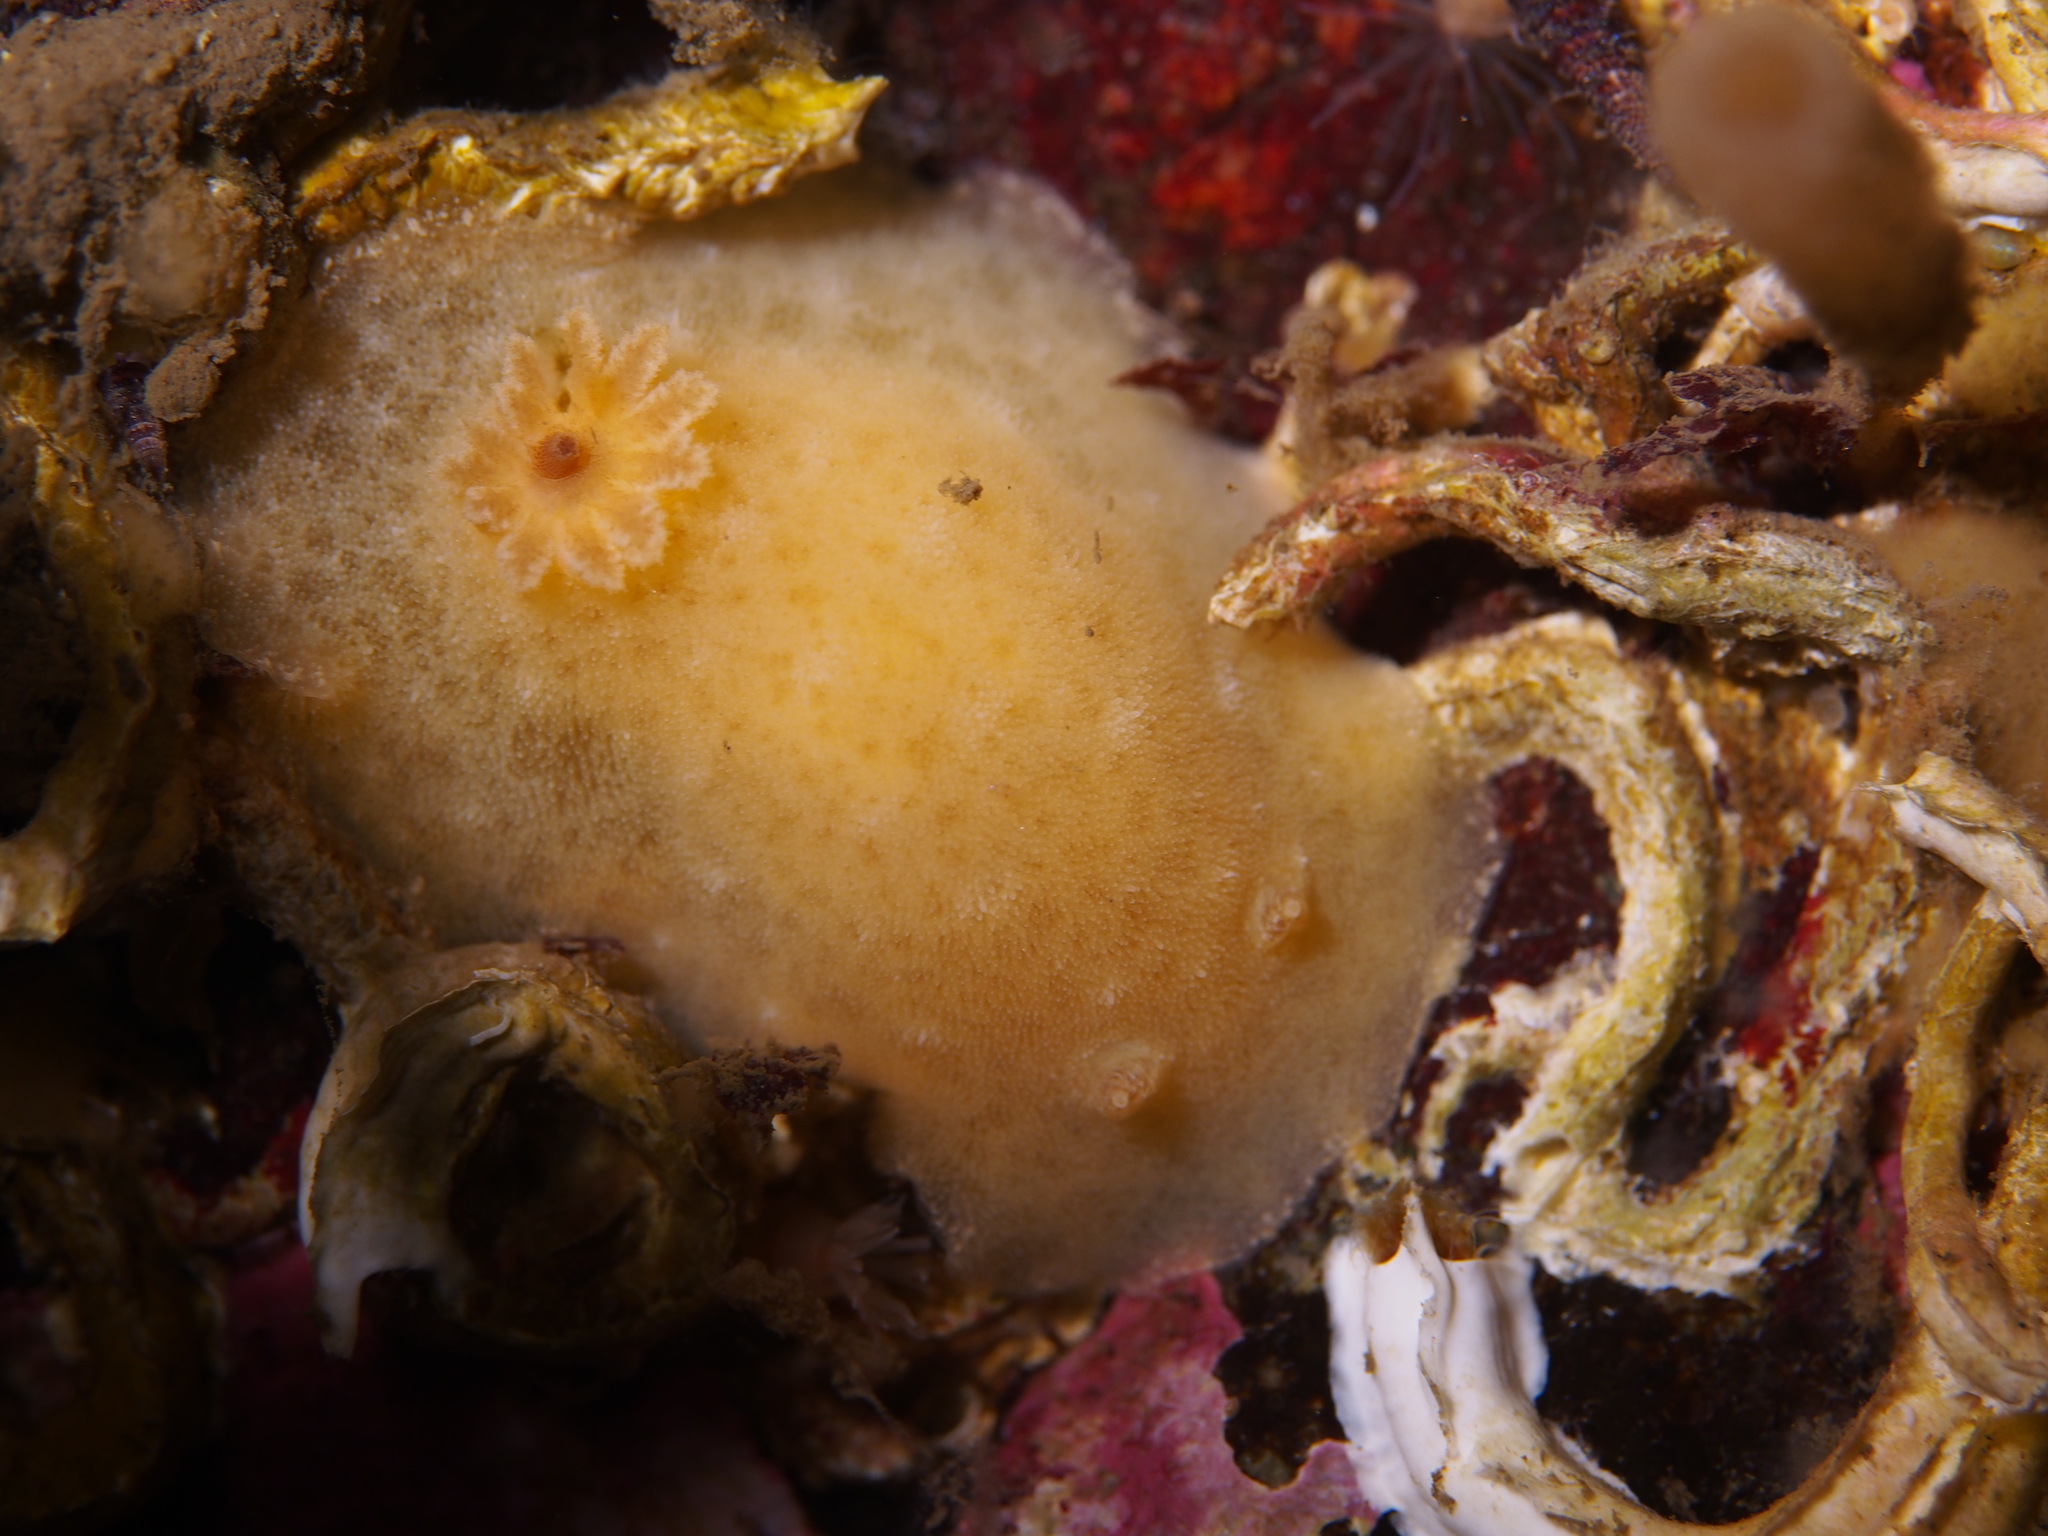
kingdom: Animalia
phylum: Mollusca
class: Gastropoda
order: Nudibranchia
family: Discodorididae
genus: Jorunna
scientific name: Jorunna tomentosa
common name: Grey sea slug
